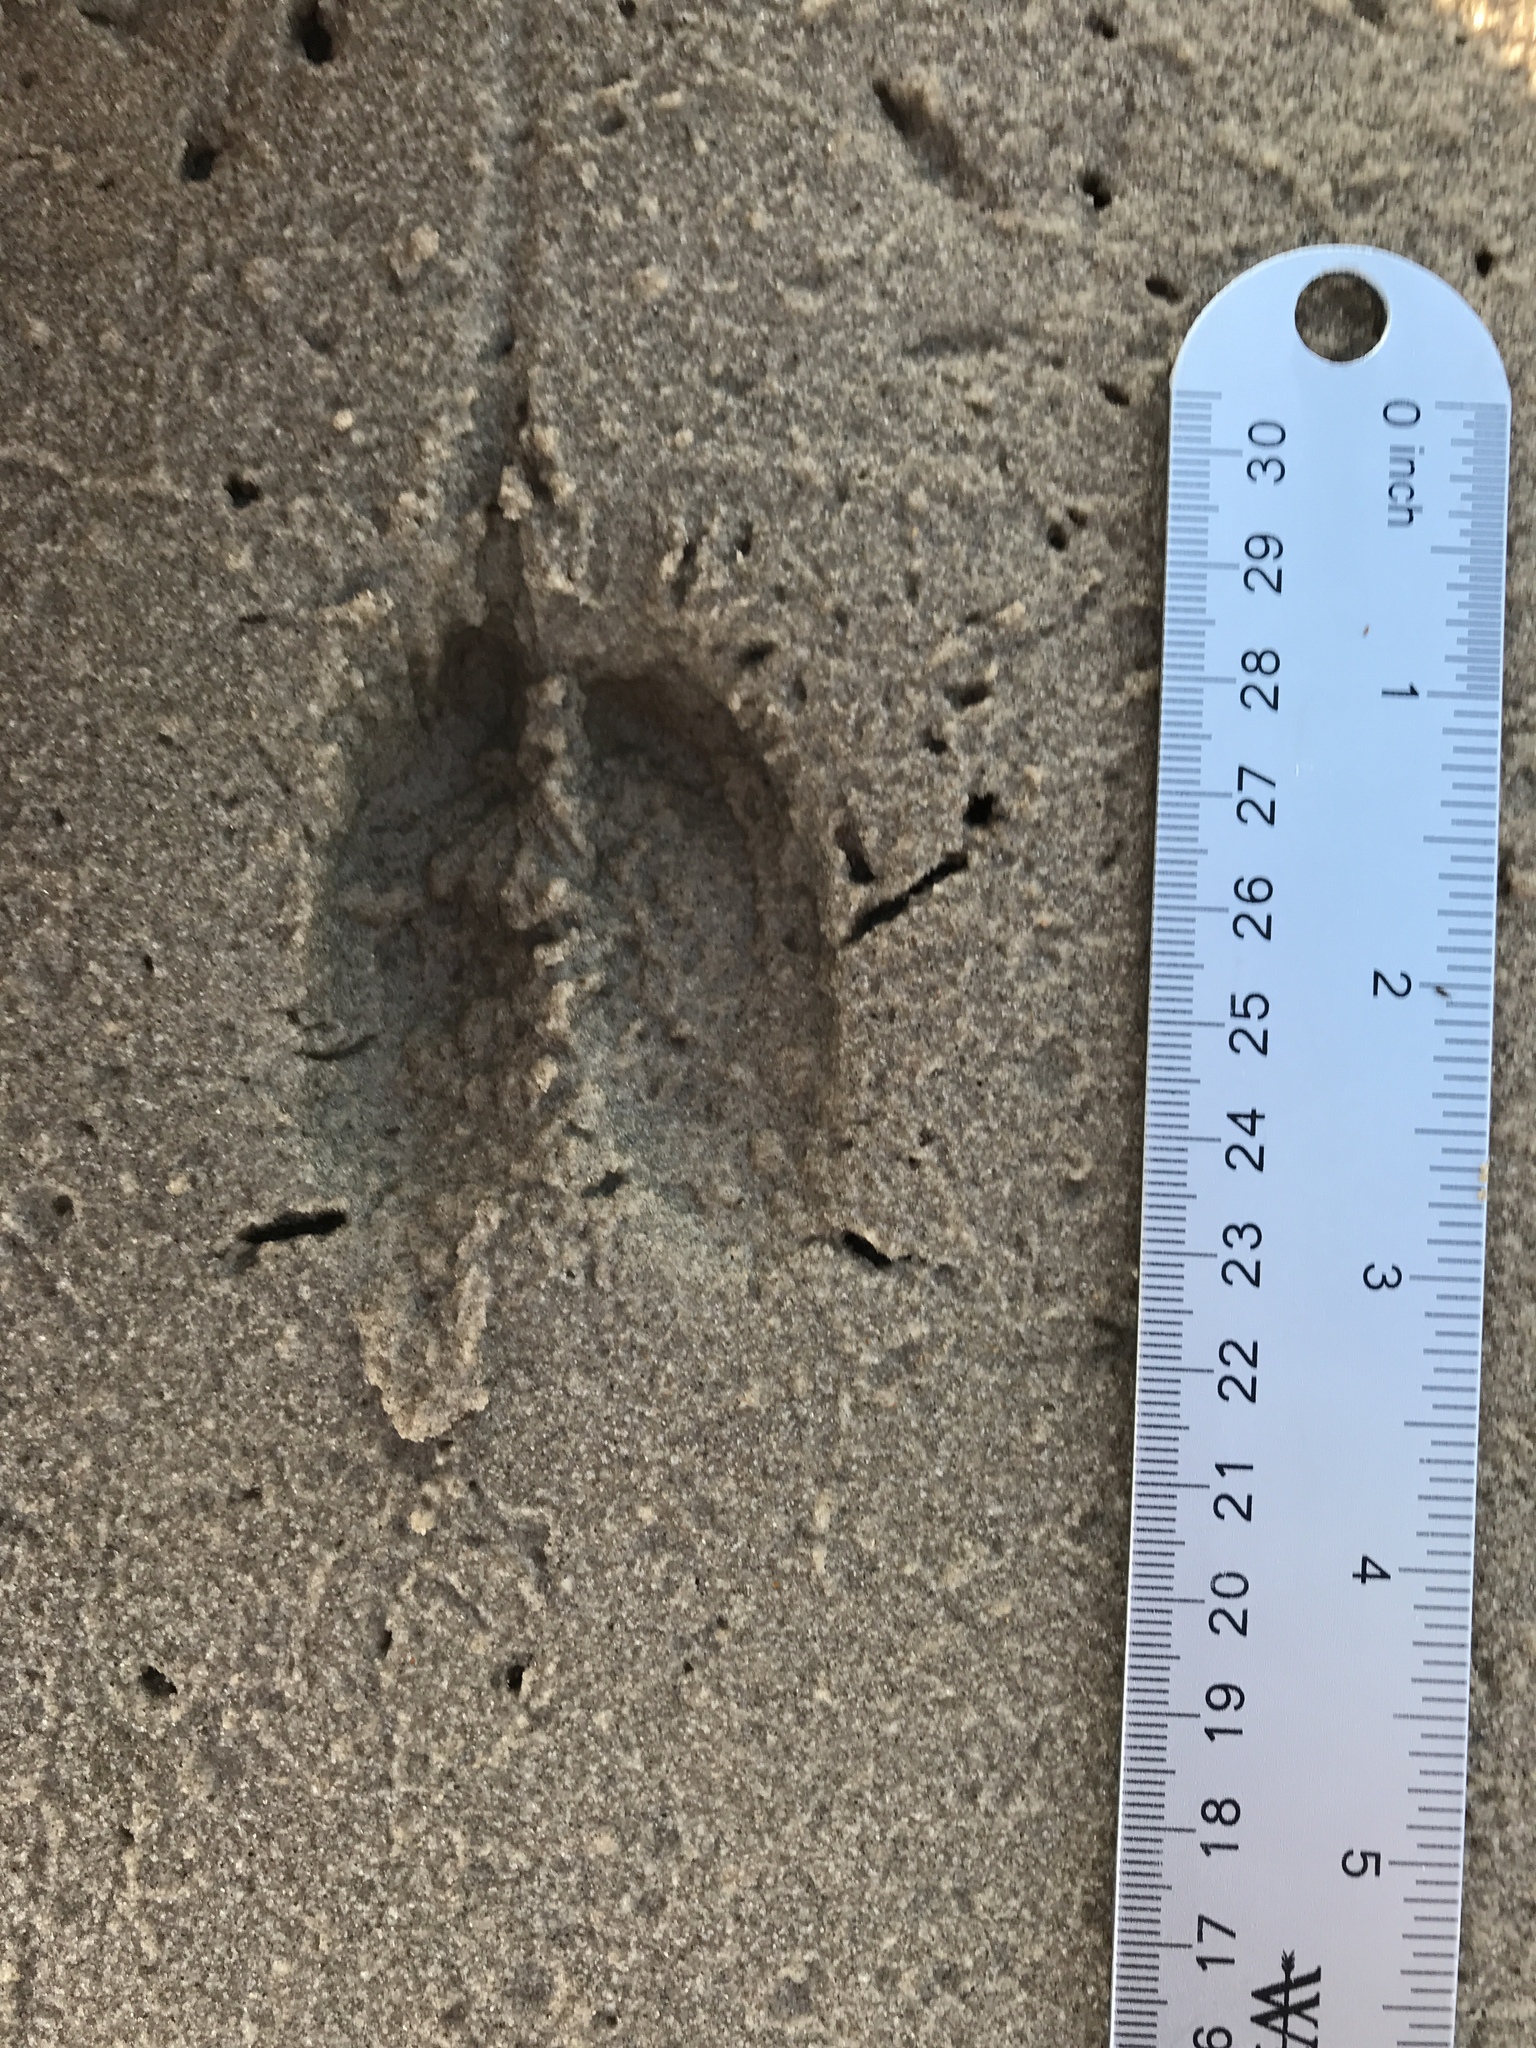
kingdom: Animalia
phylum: Chordata
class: Mammalia
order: Artiodactyla
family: Cervidae
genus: Odocoileus
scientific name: Odocoileus virginianus
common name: White-tailed deer
